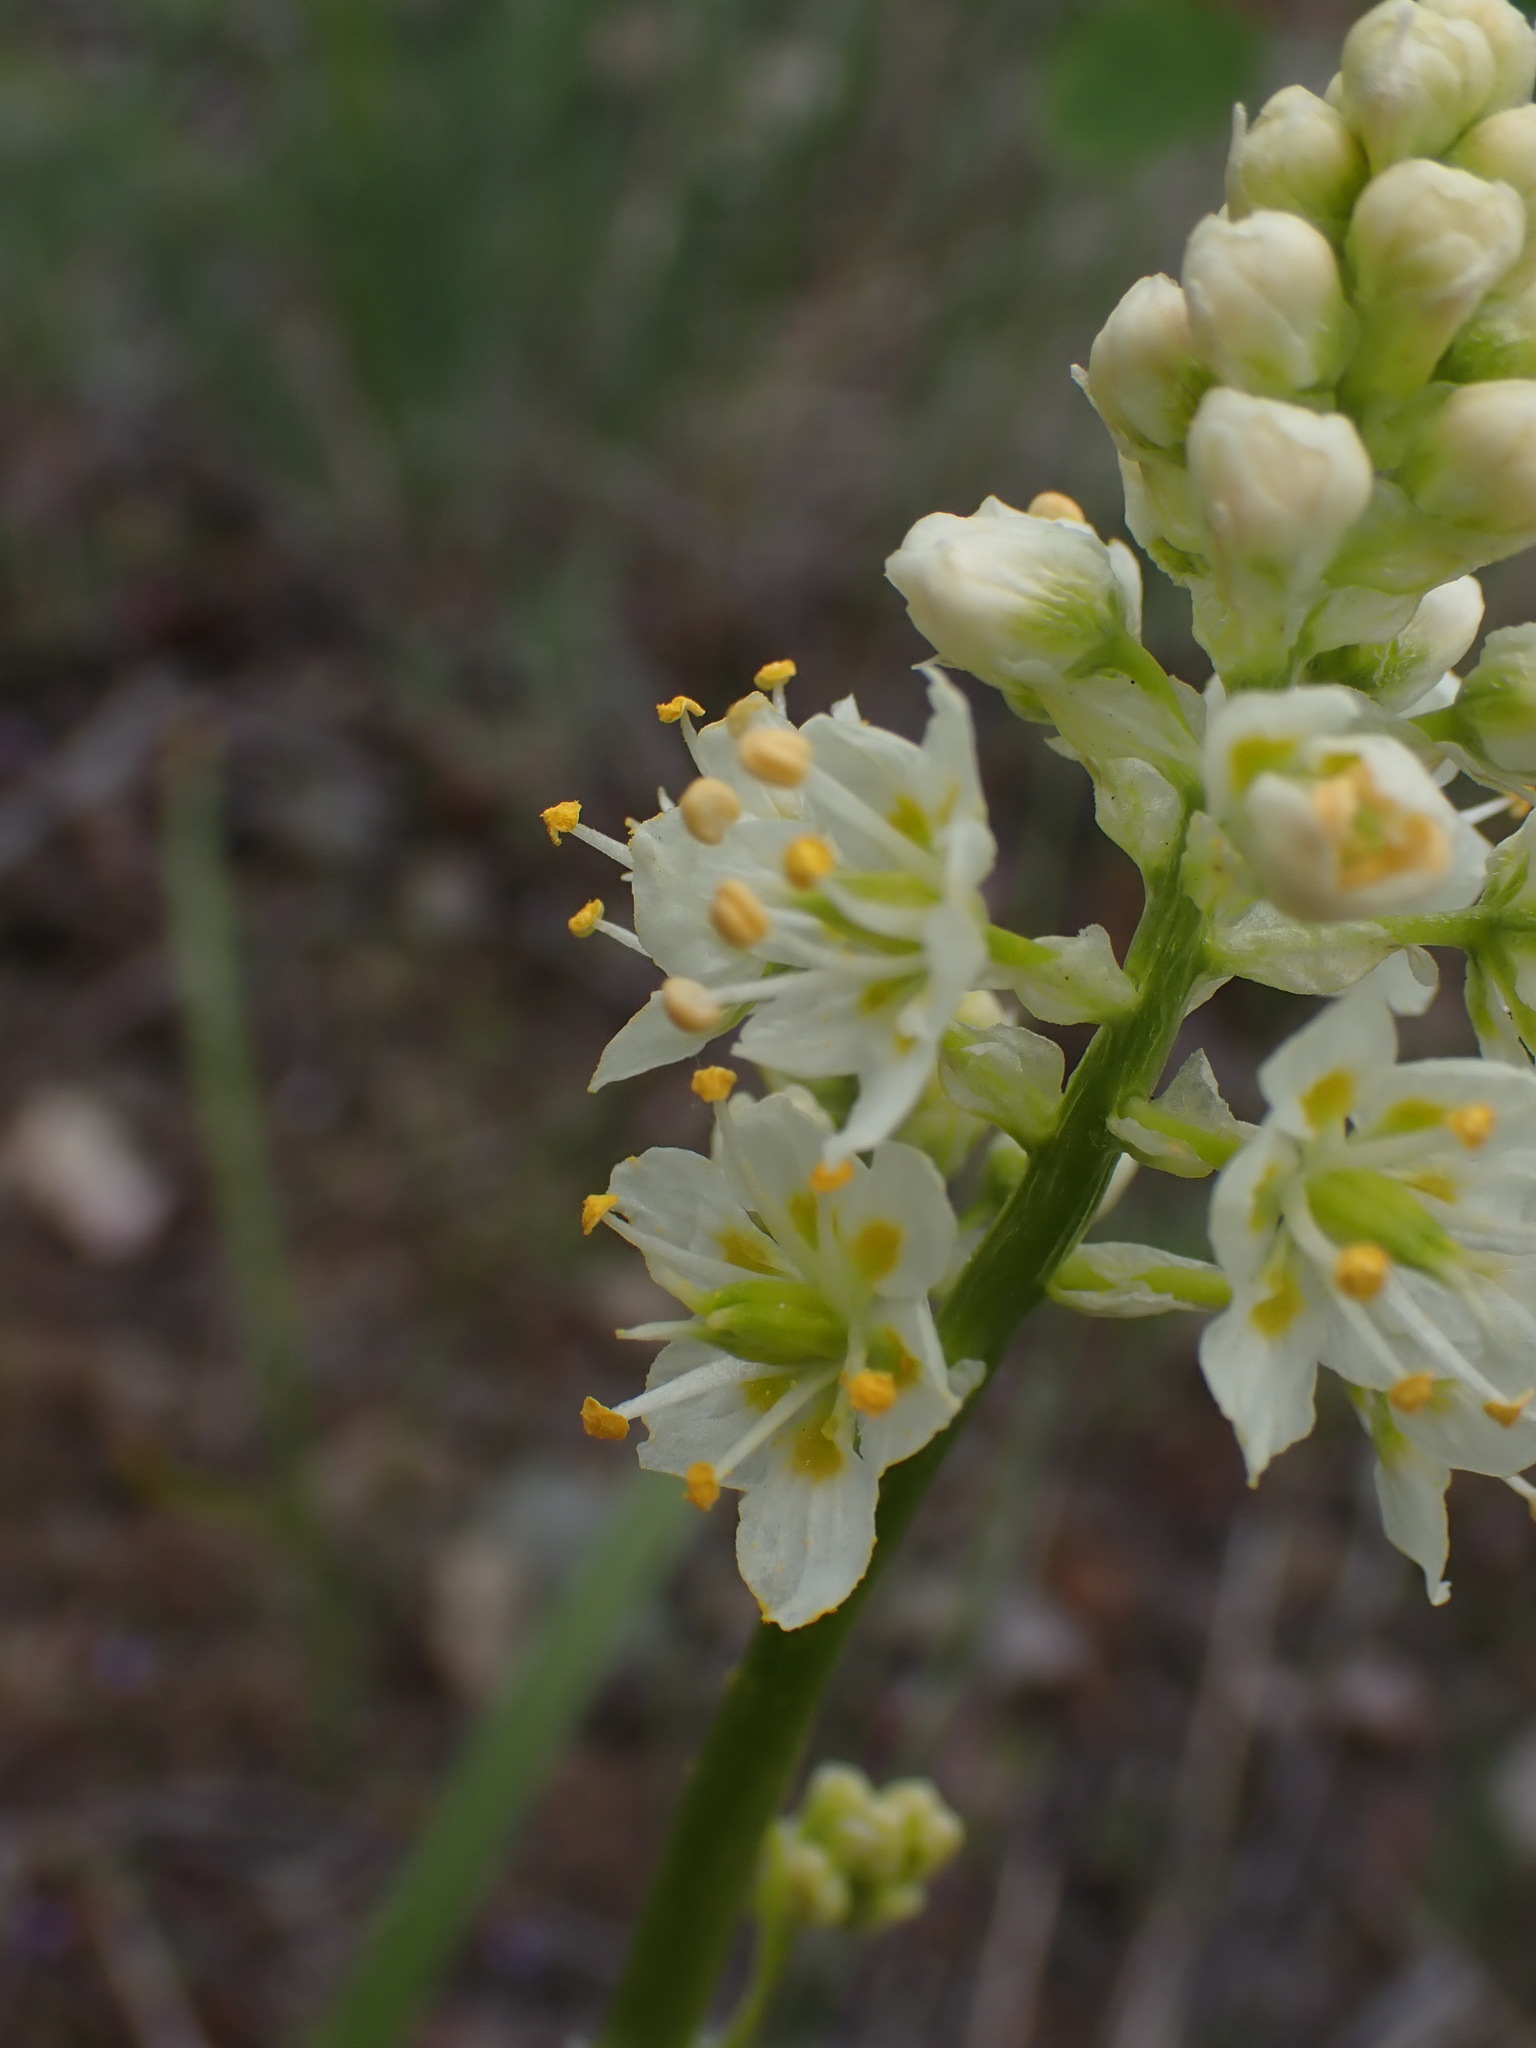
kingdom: Plantae
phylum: Tracheophyta
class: Liliopsida
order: Liliales
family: Melanthiaceae
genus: Toxicoscordion
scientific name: Toxicoscordion venenosum
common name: Meadow death camas
